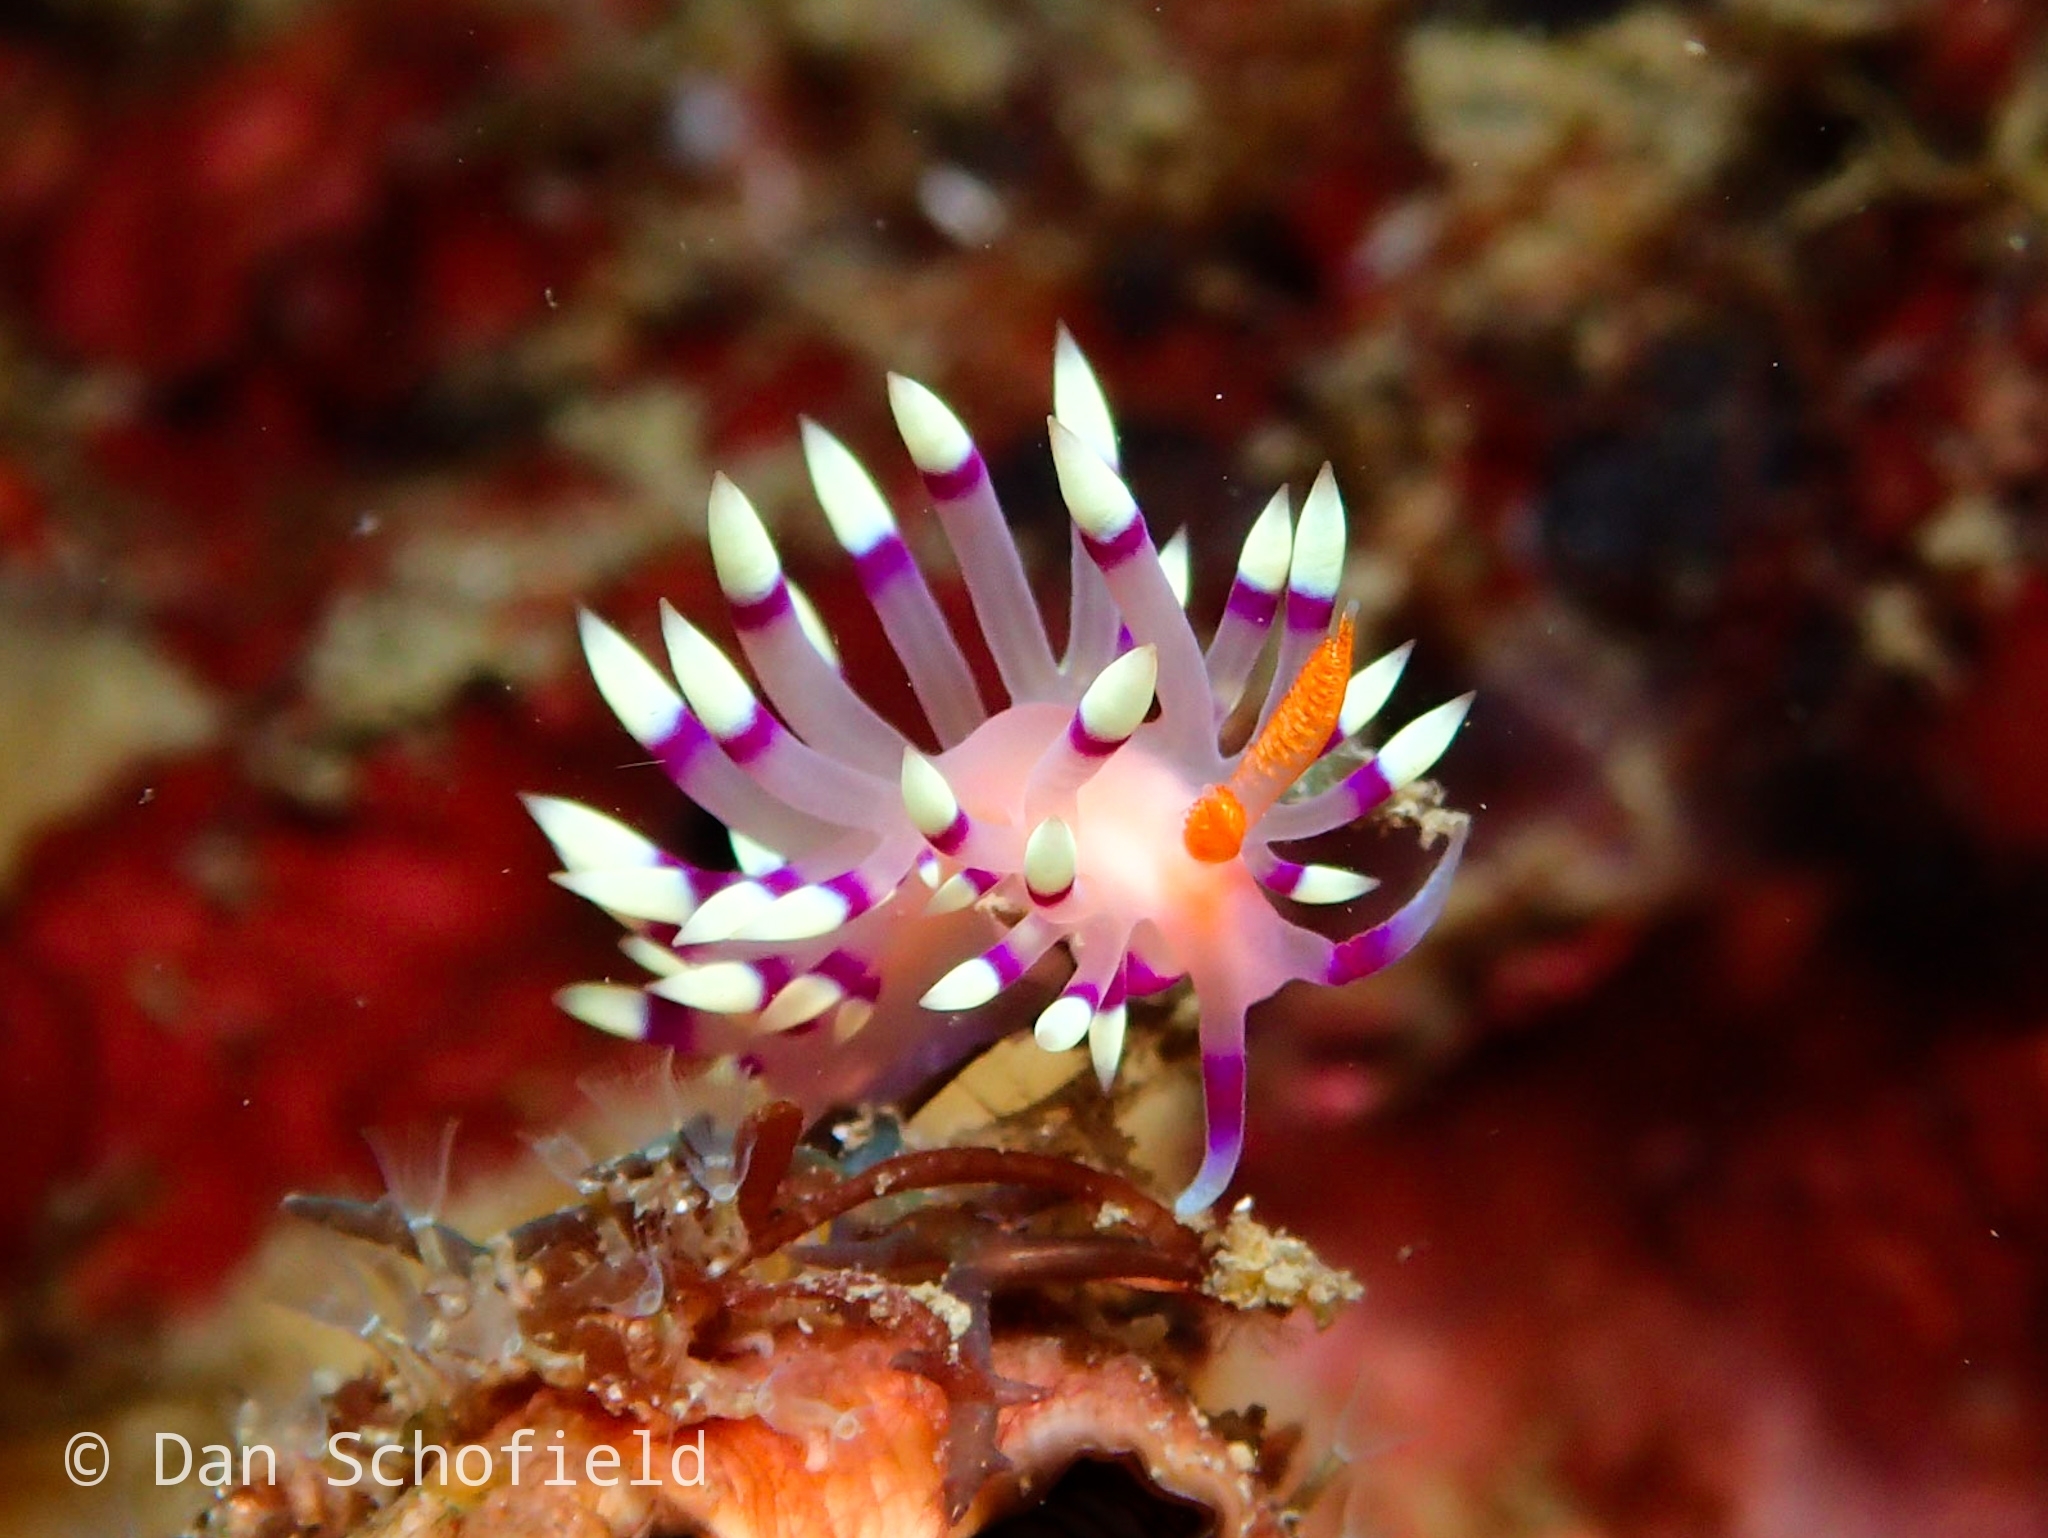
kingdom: Animalia
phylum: Mollusca
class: Gastropoda
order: Nudibranchia
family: Flabellinidae
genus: Coryphellina
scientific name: Coryphellina exoptata
